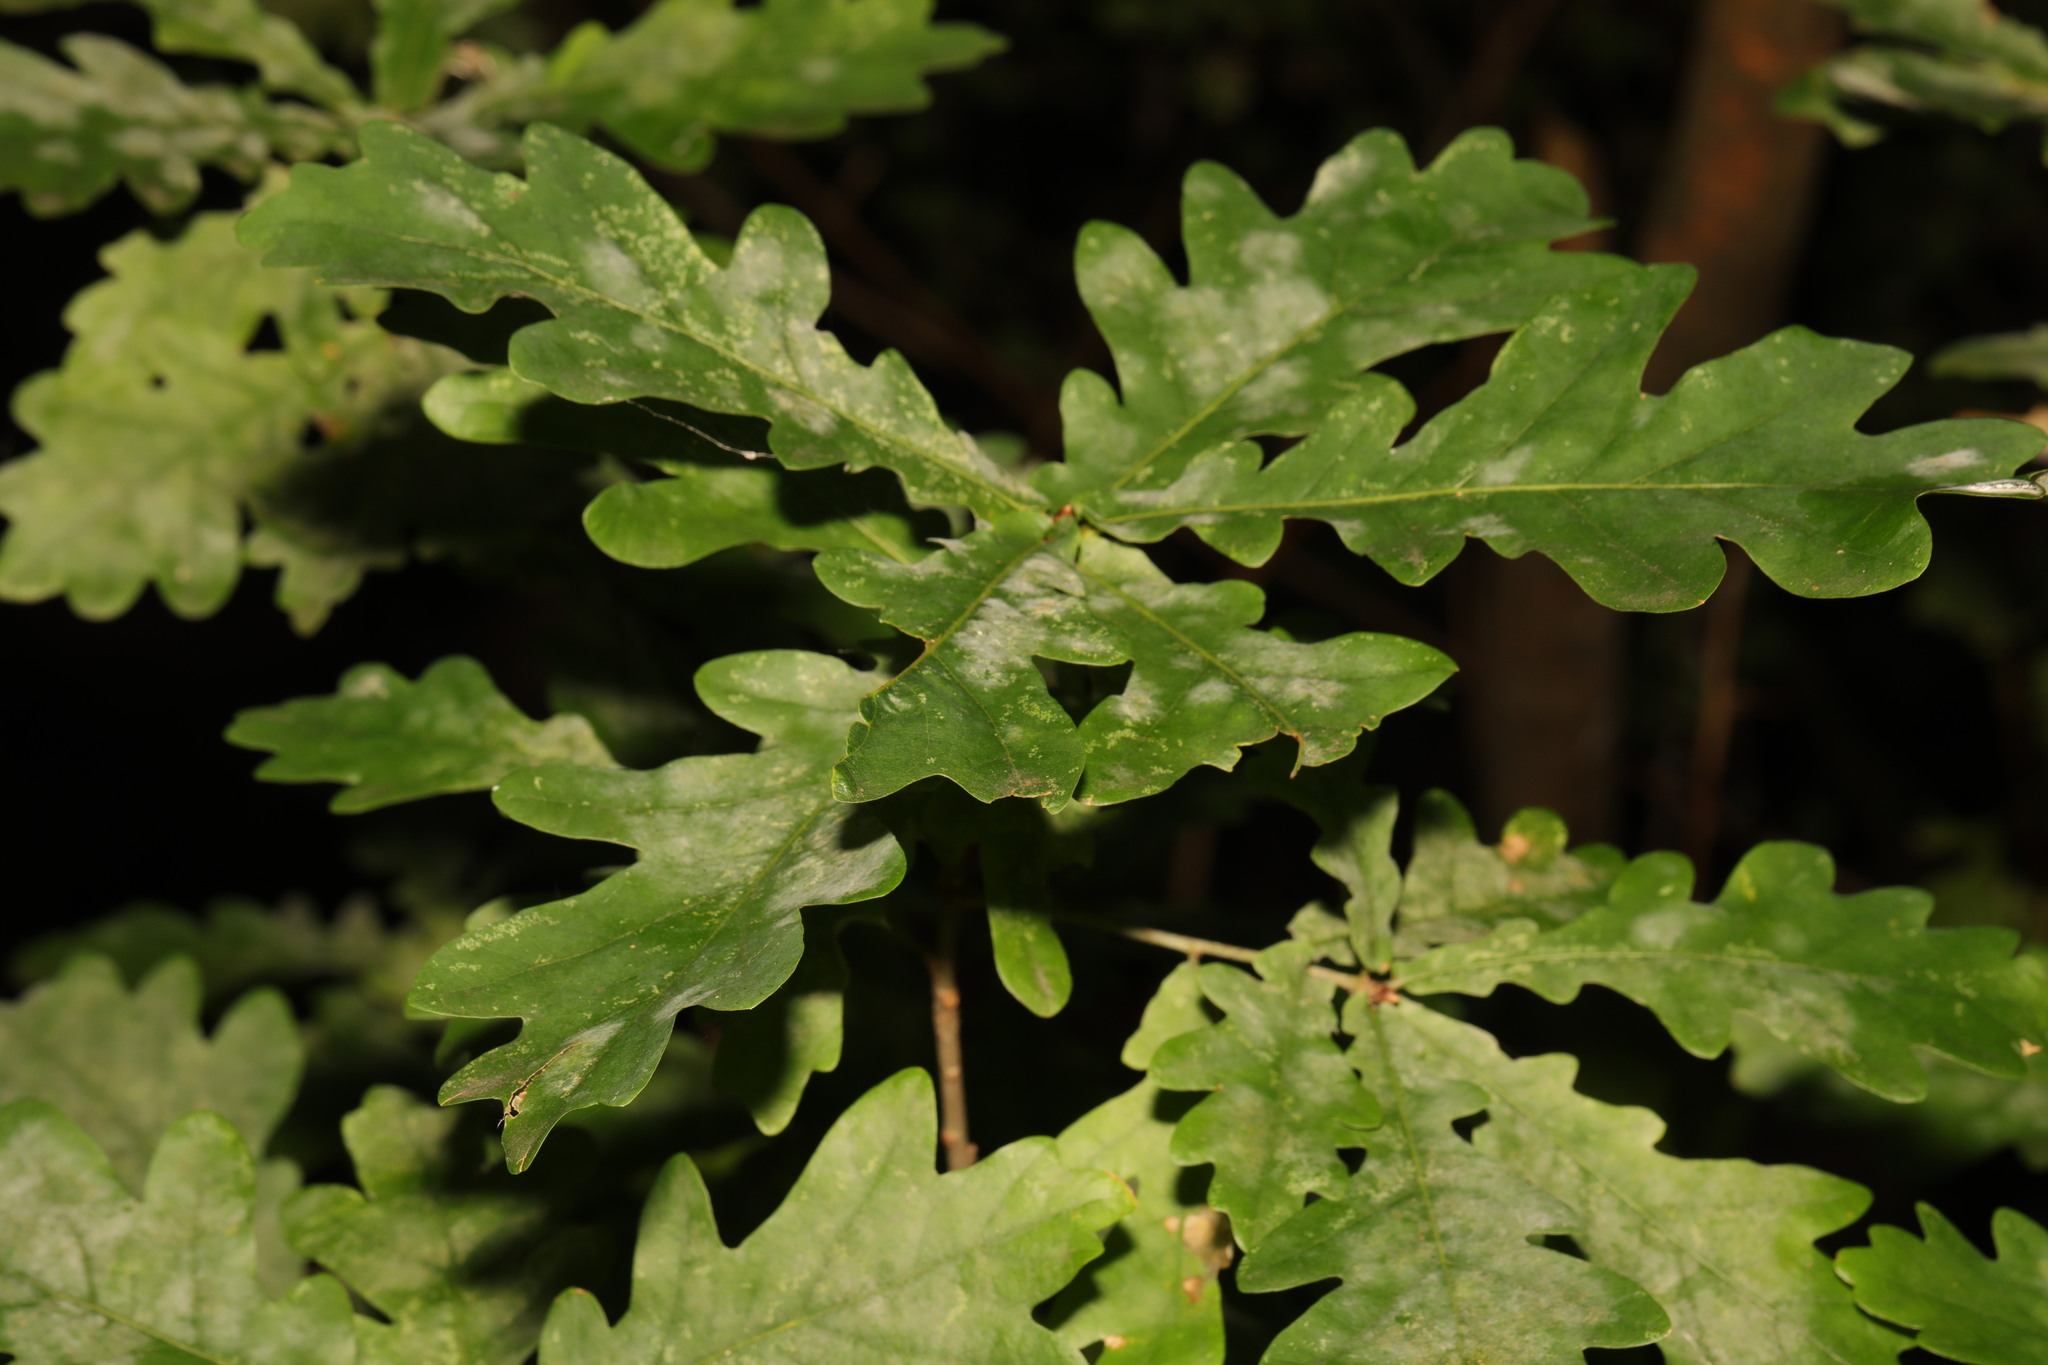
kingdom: Fungi
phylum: Ascomycota
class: Leotiomycetes
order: Helotiales
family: Erysiphaceae
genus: Erysiphe
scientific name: Erysiphe alphitoides
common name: Oak mildew
